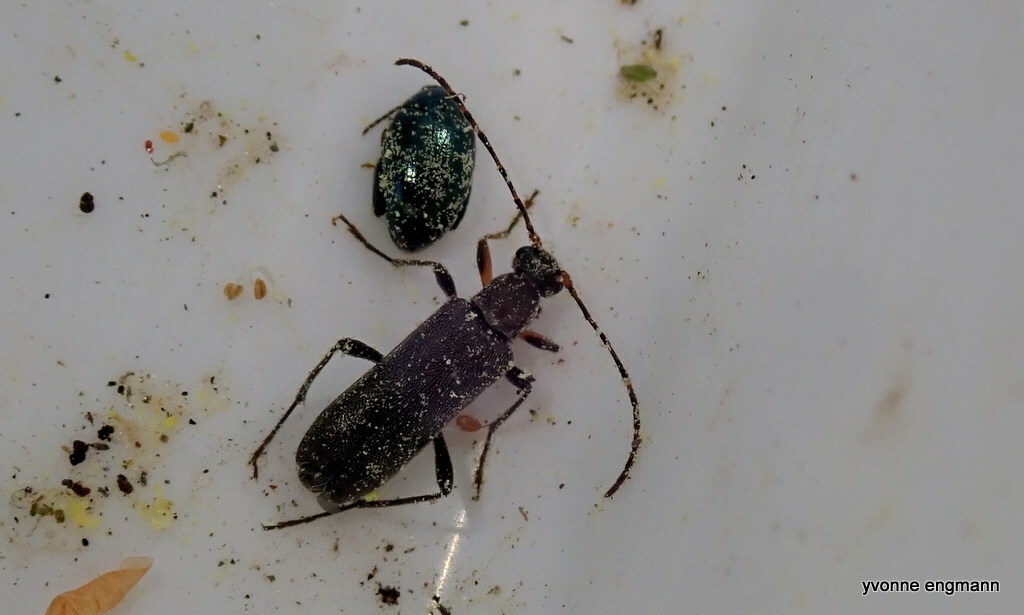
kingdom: Animalia
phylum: Arthropoda
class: Insecta
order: Coleoptera
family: Cerambycidae
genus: Grammoptera
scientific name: Grammoptera ruficornis
